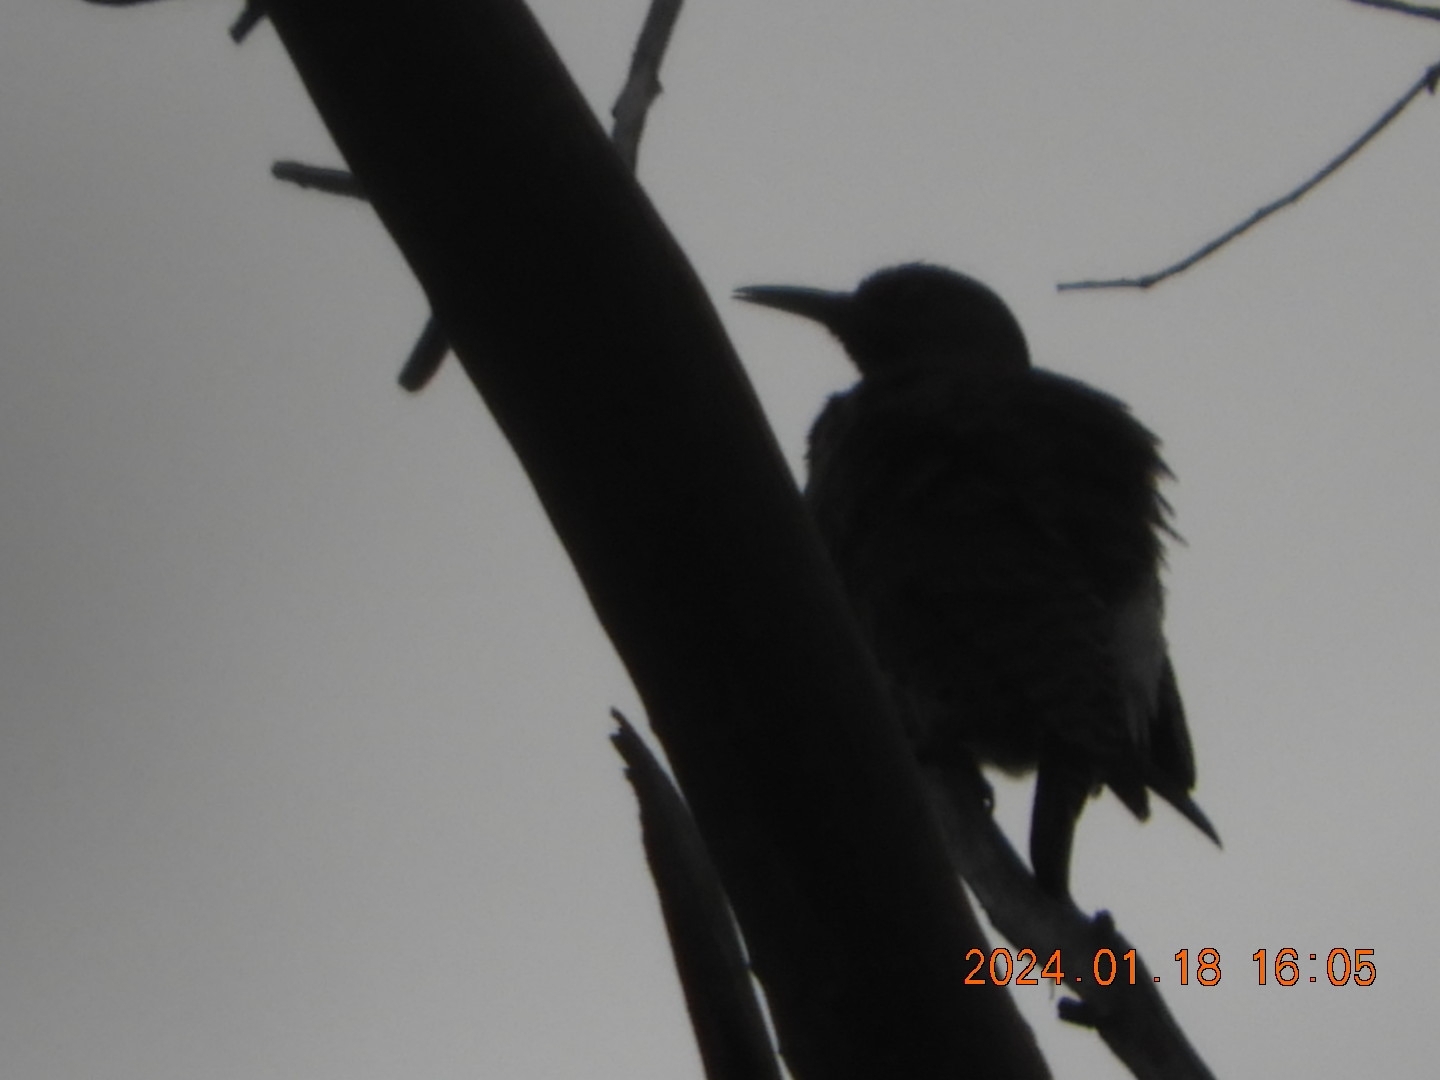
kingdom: Animalia
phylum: Chordata
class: Aves
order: Piciformes
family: Picidae
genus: Colaptes
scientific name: Colaptes auratus
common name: Northern flicker
